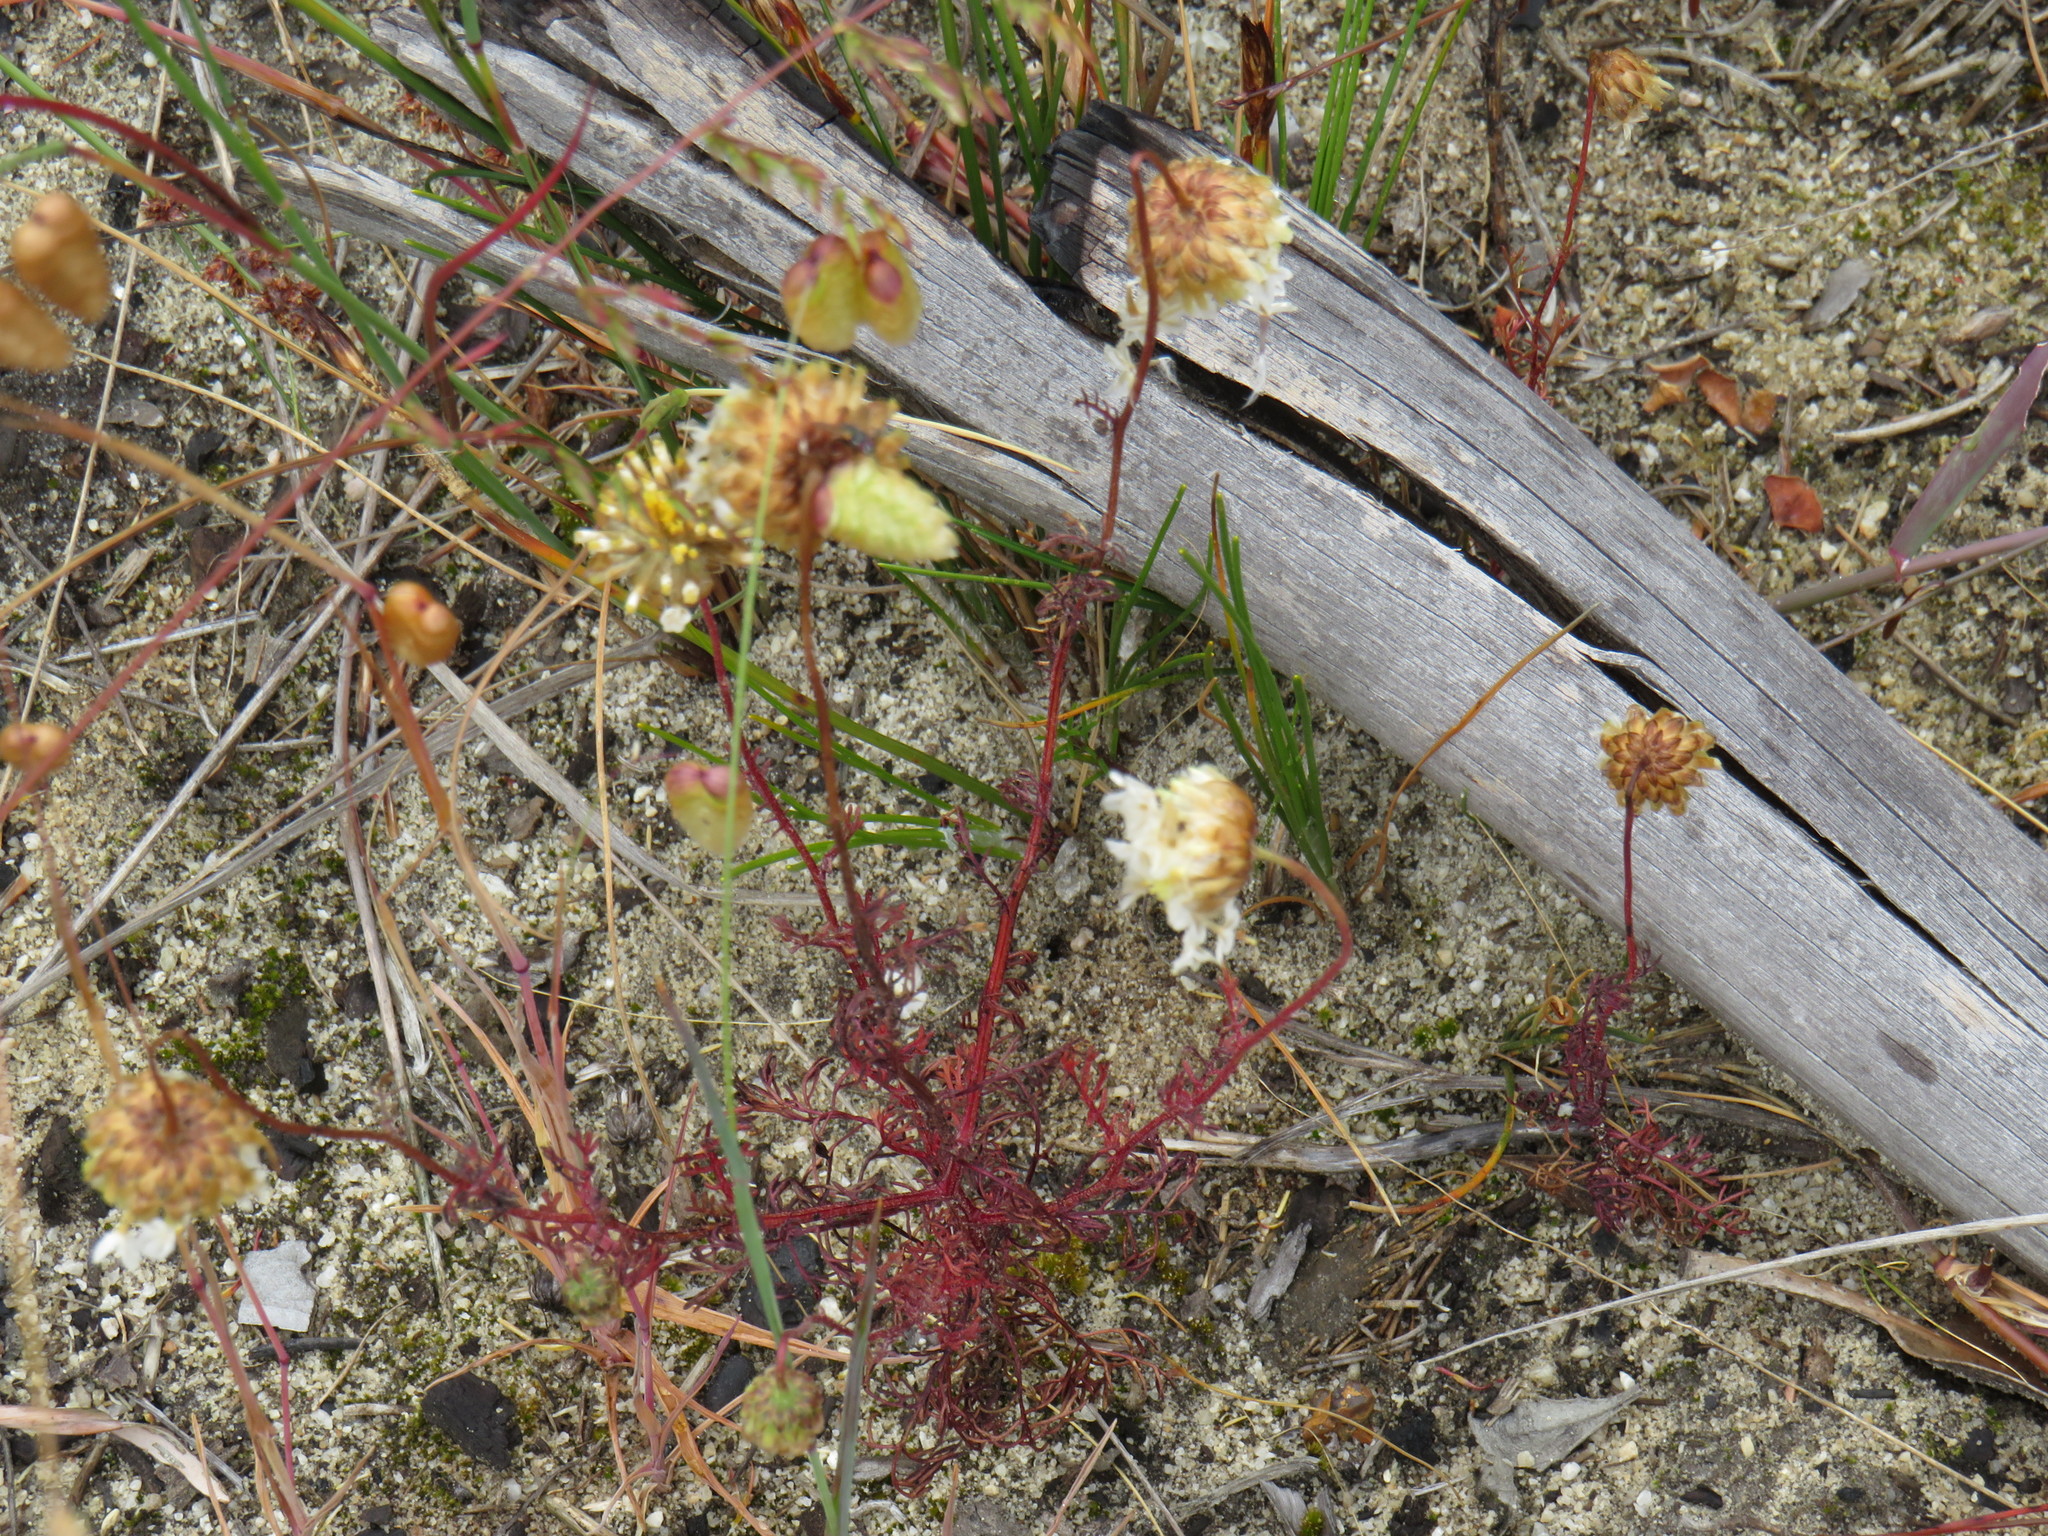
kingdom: Plantae
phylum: Tracheophyta
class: Magnoliopsida
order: Asterales
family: Asteraceae
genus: Ursinia
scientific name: Ursinia anthemoides
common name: Ursinia
